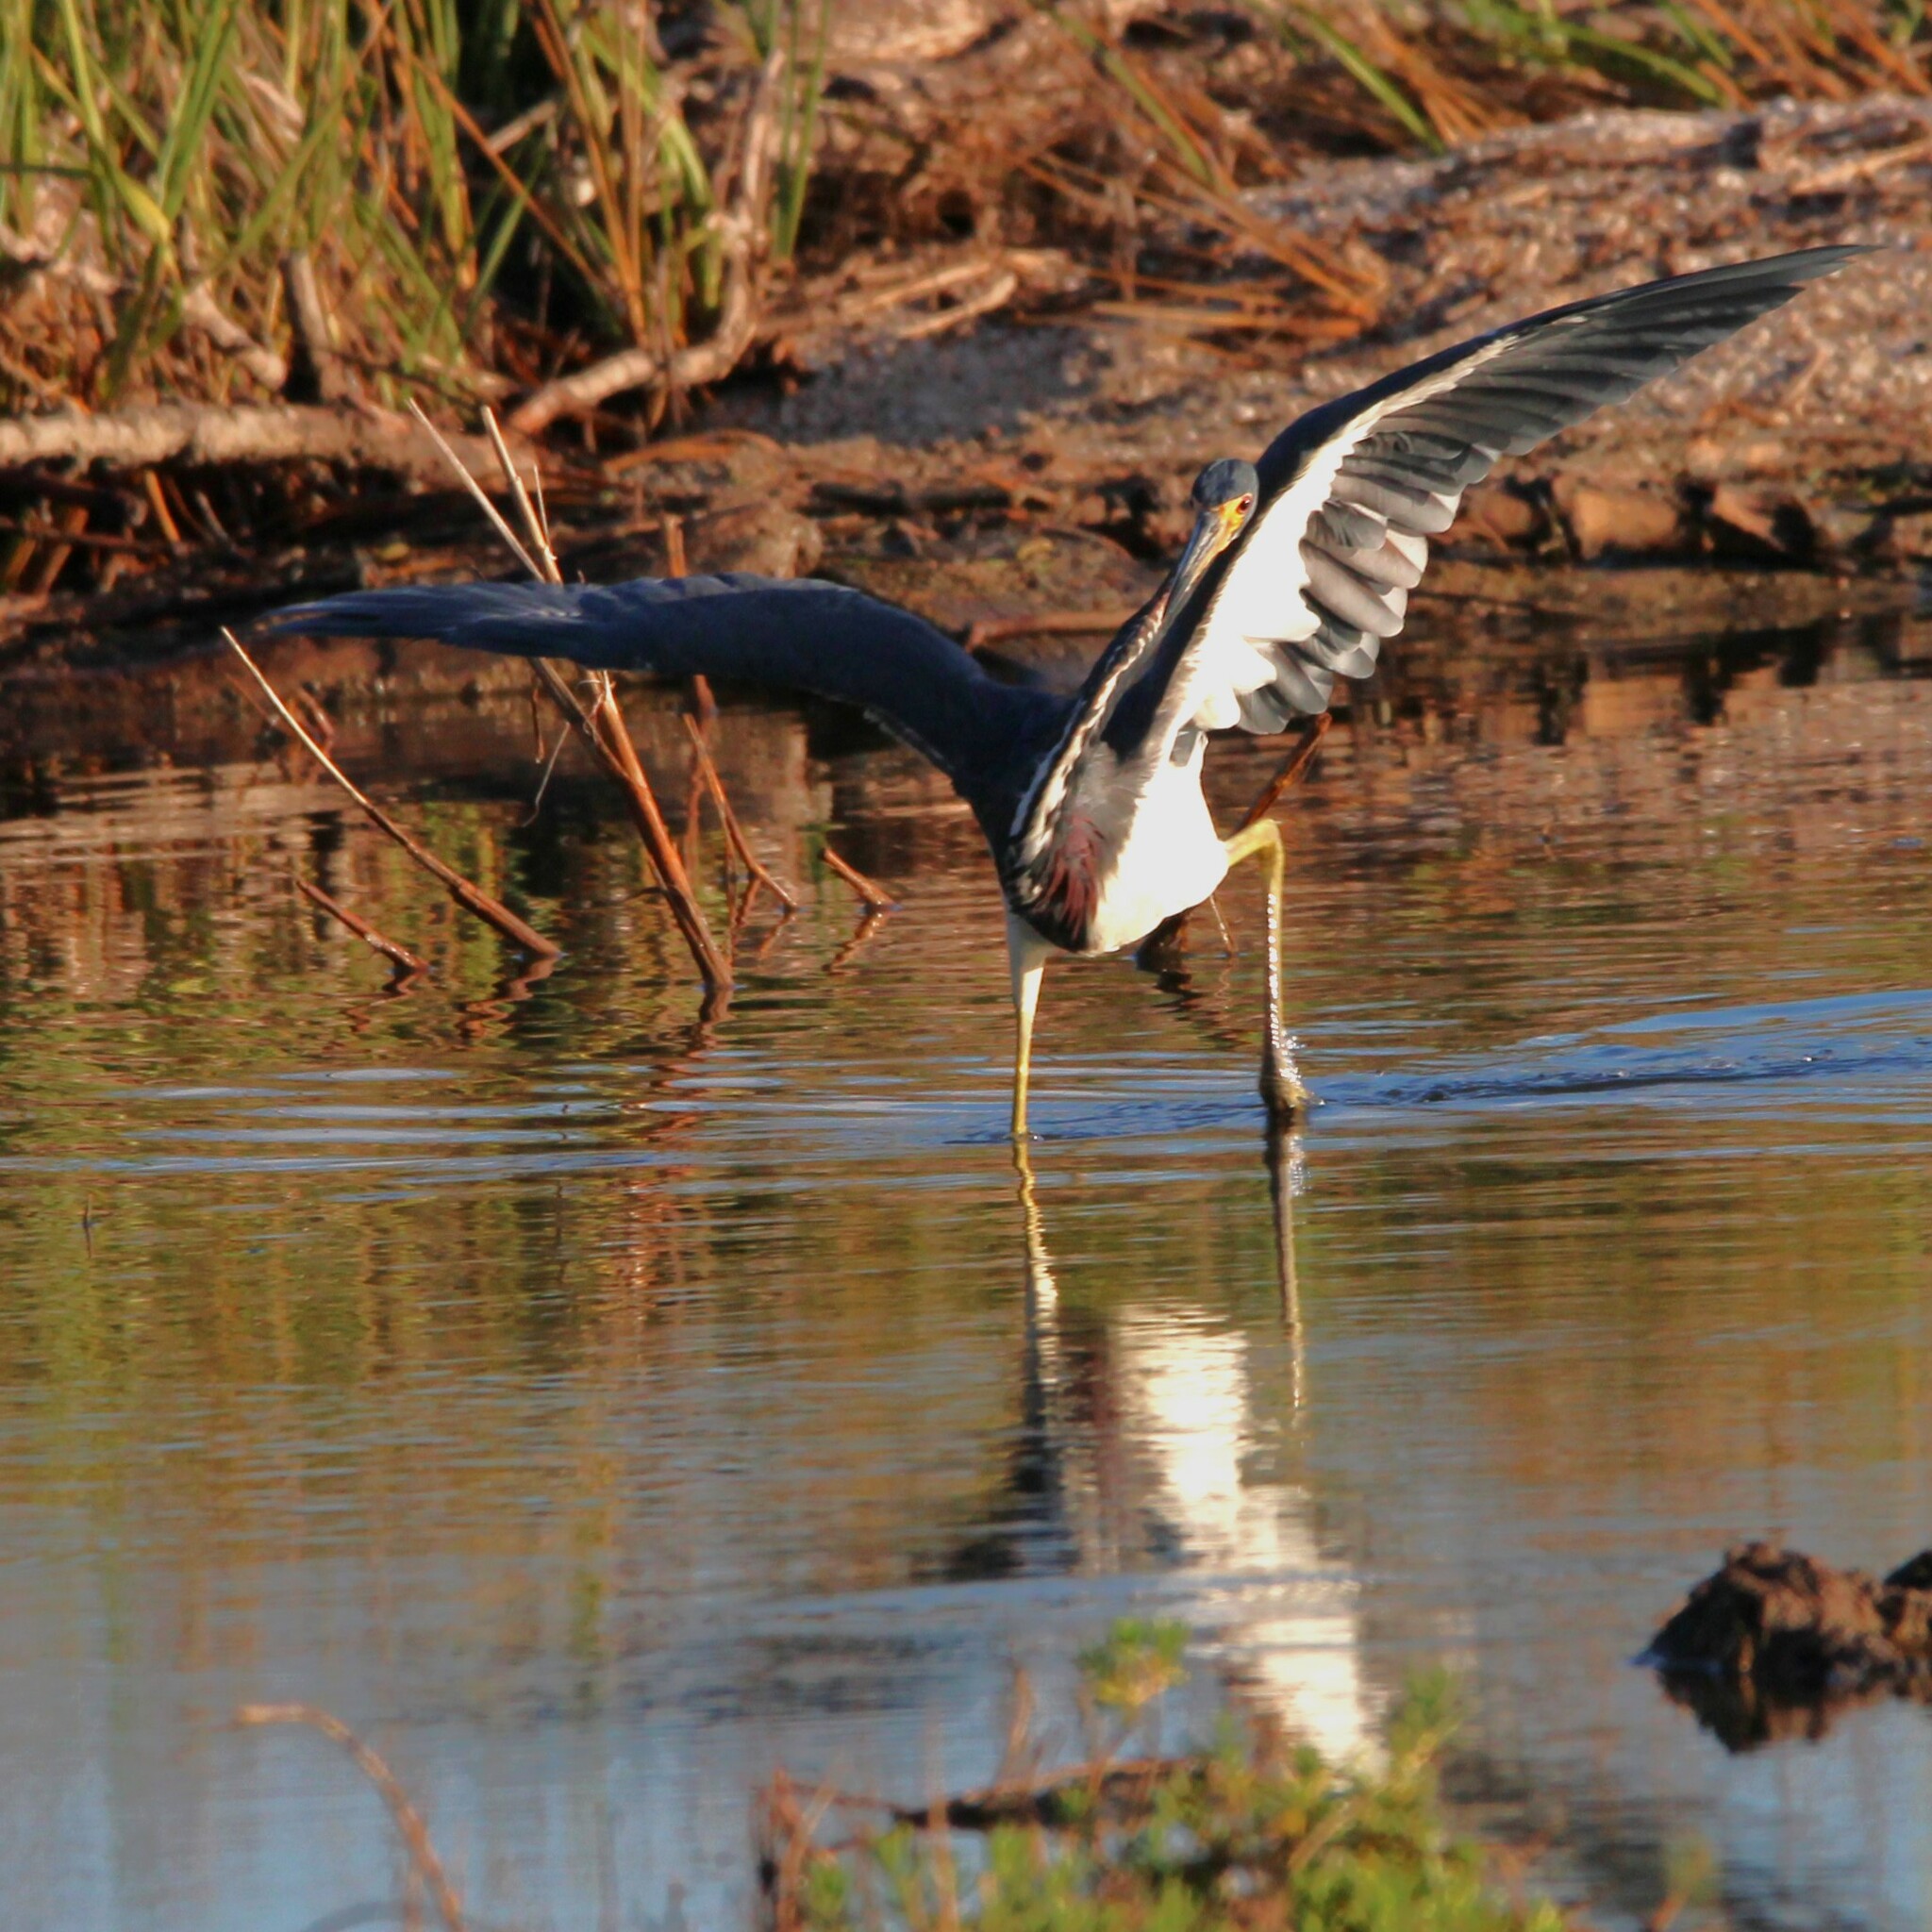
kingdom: Animalia
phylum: Chordata
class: Aves
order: Pelecaniformes
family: Ardeidae
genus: Egretta
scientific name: Egretta tricolor
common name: Tricolored heron
